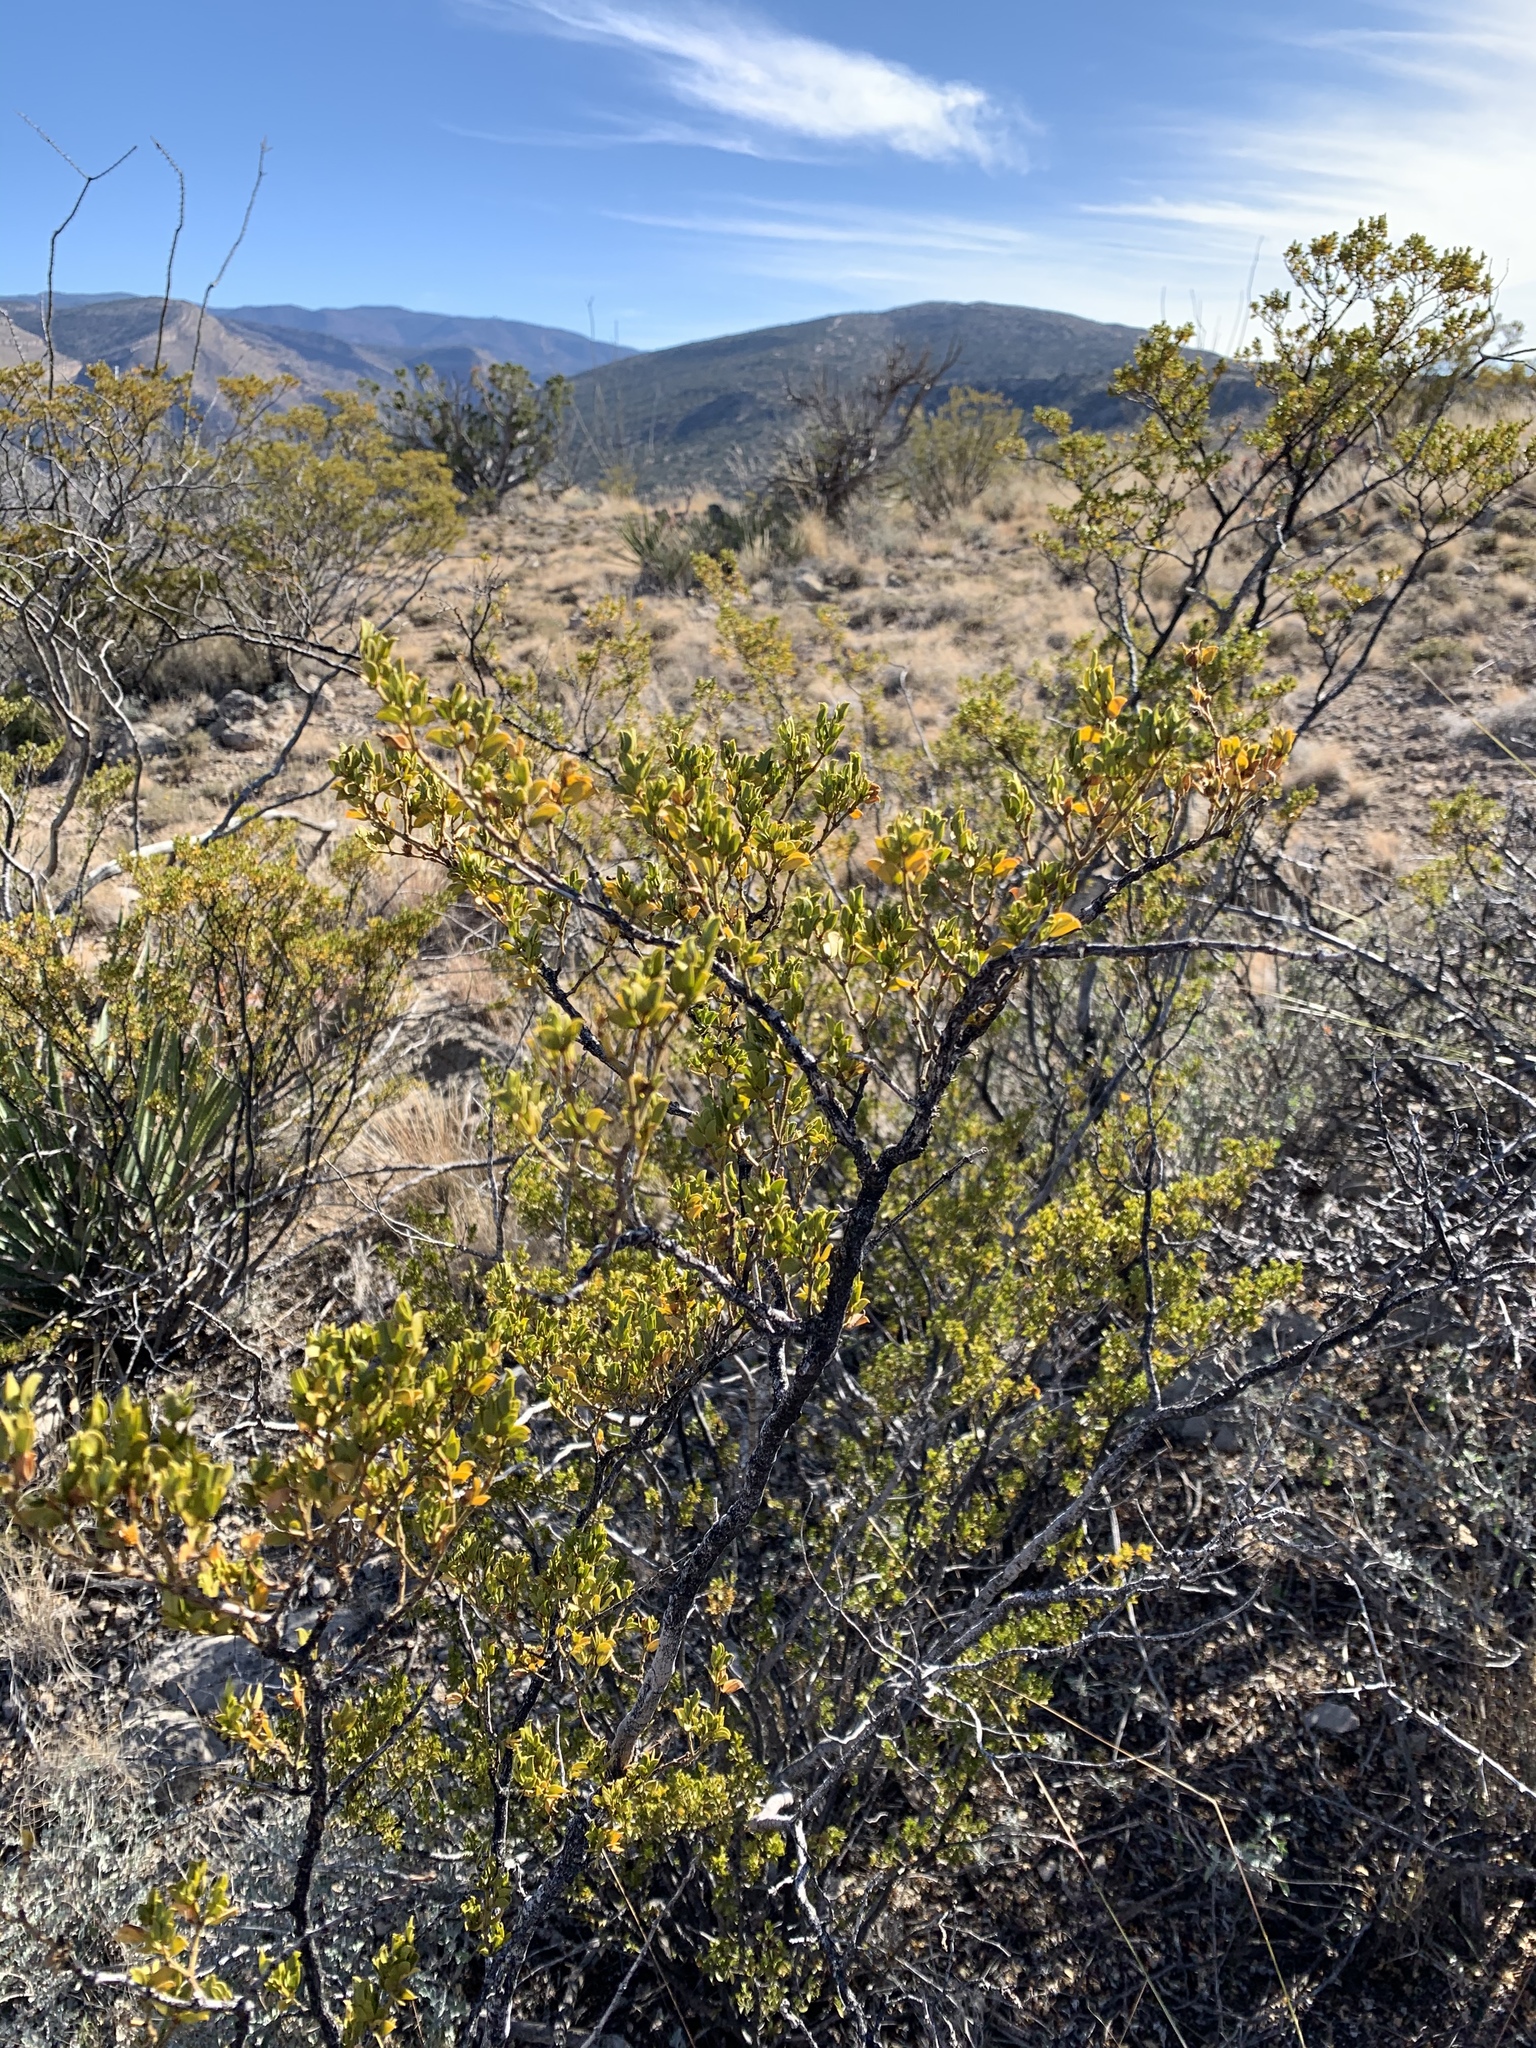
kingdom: Plantae
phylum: Tracheophyta
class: Magnoliopsida
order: Zygophyllales
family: Zygophyllaceae
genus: Larrea
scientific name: Larrea tridentata
